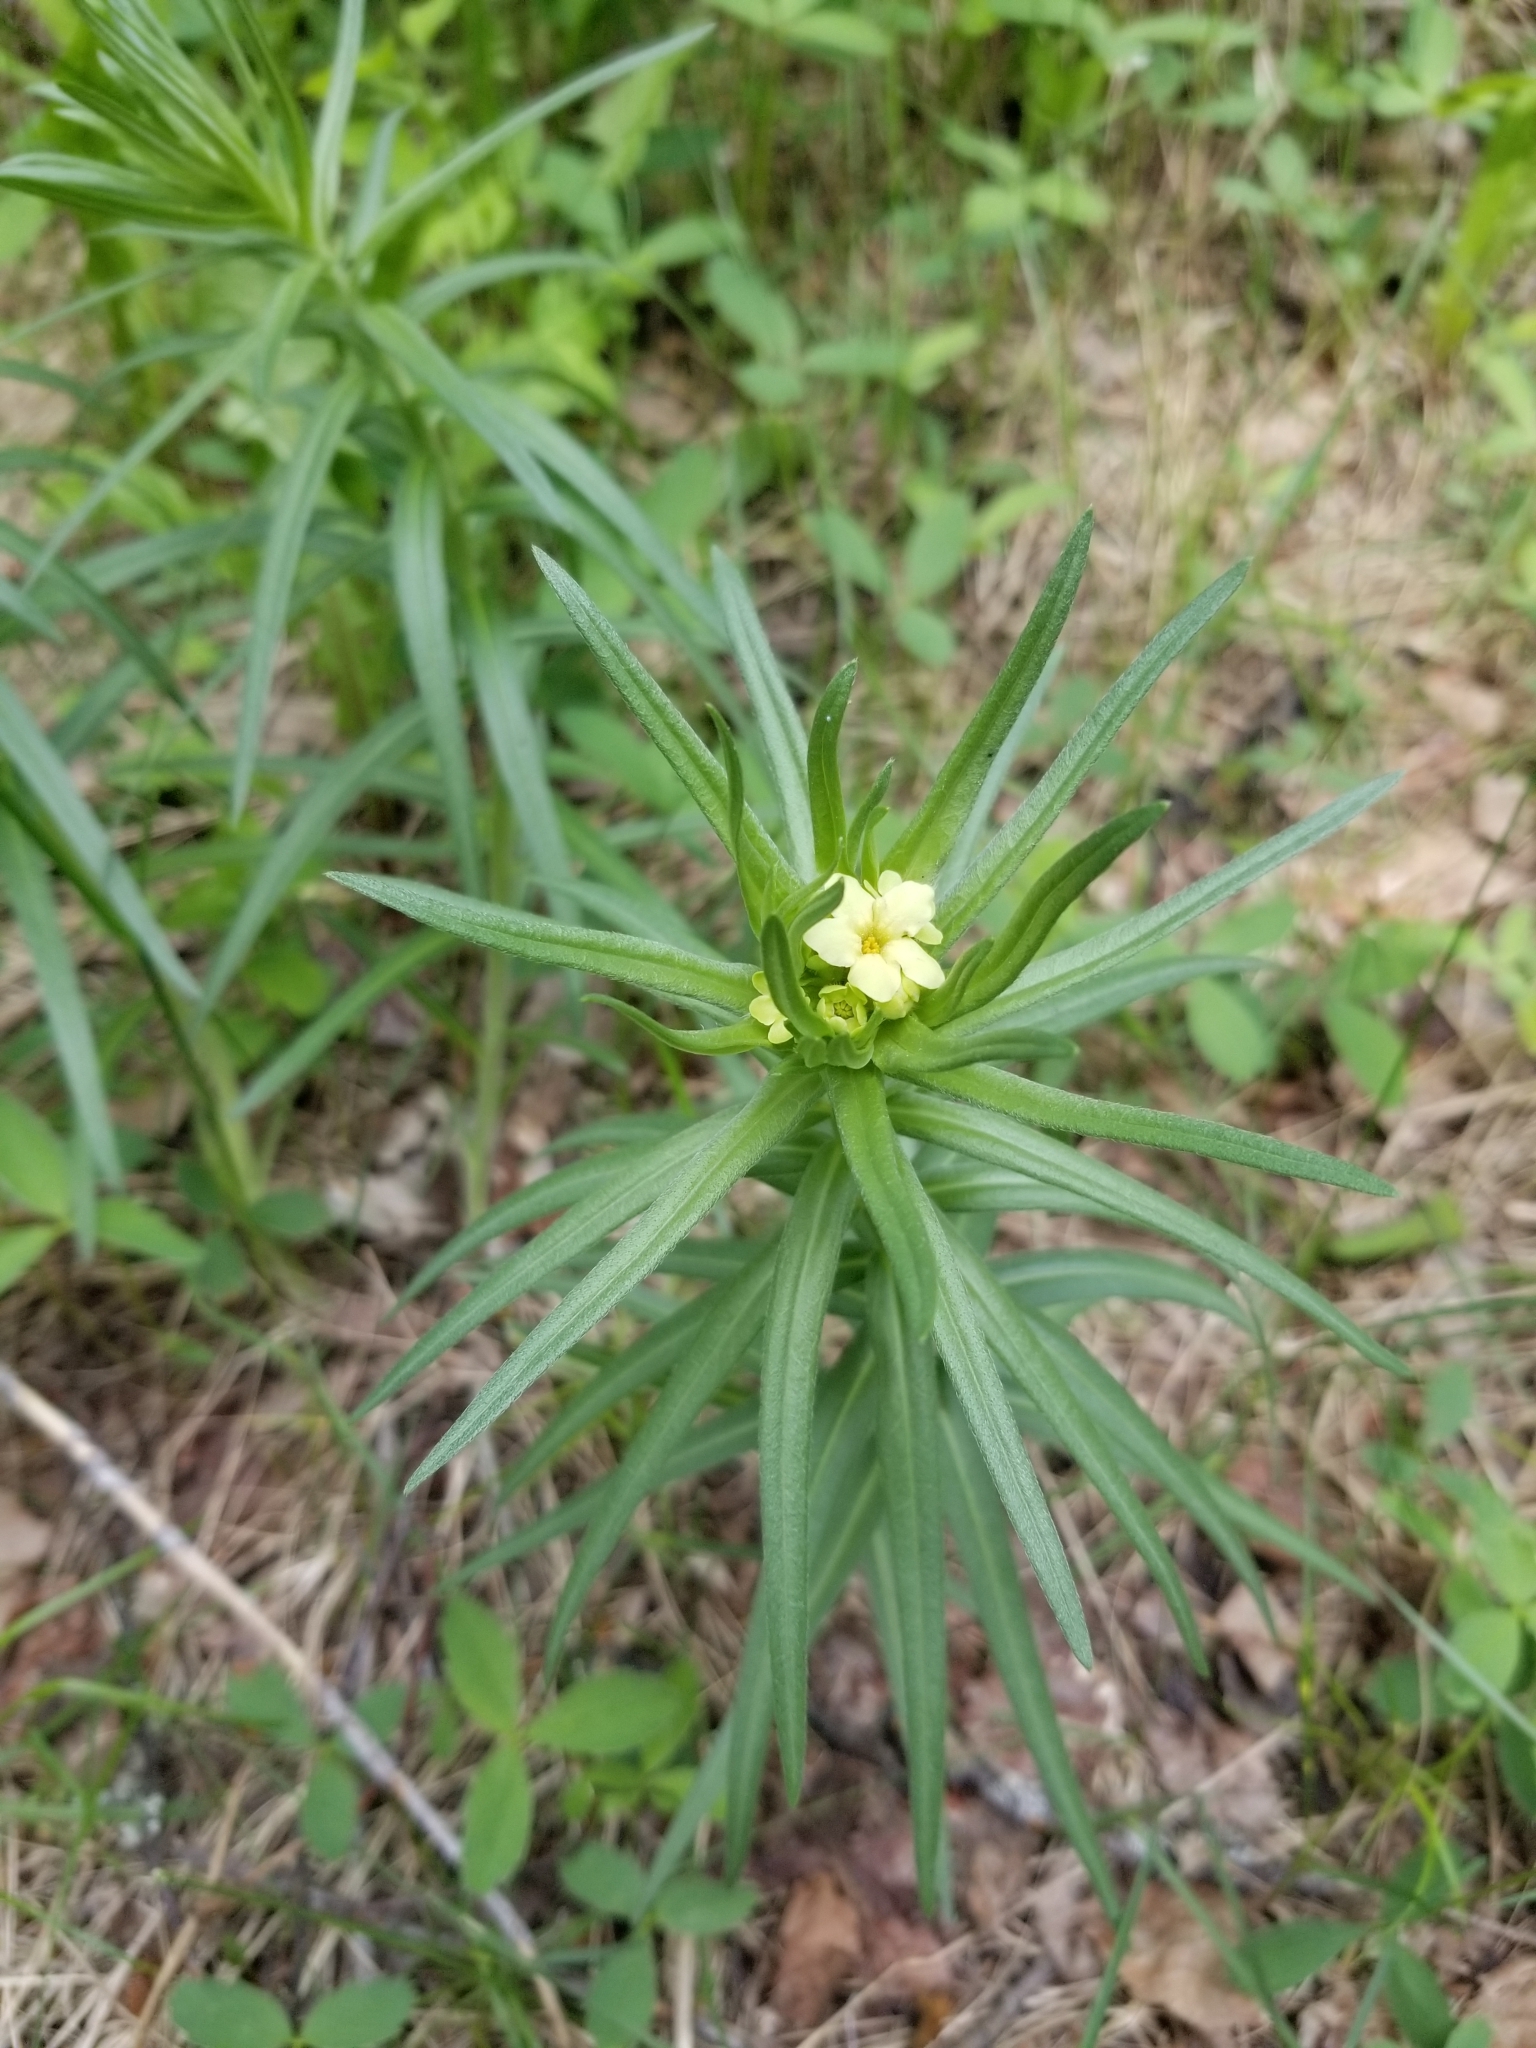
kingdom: Plantae
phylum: Tracheophyta
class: Magnoliopsida
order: Boraginales
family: Boraginaceae
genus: Lithospermum
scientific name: Lithospermum ruderale
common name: Western gromwell
